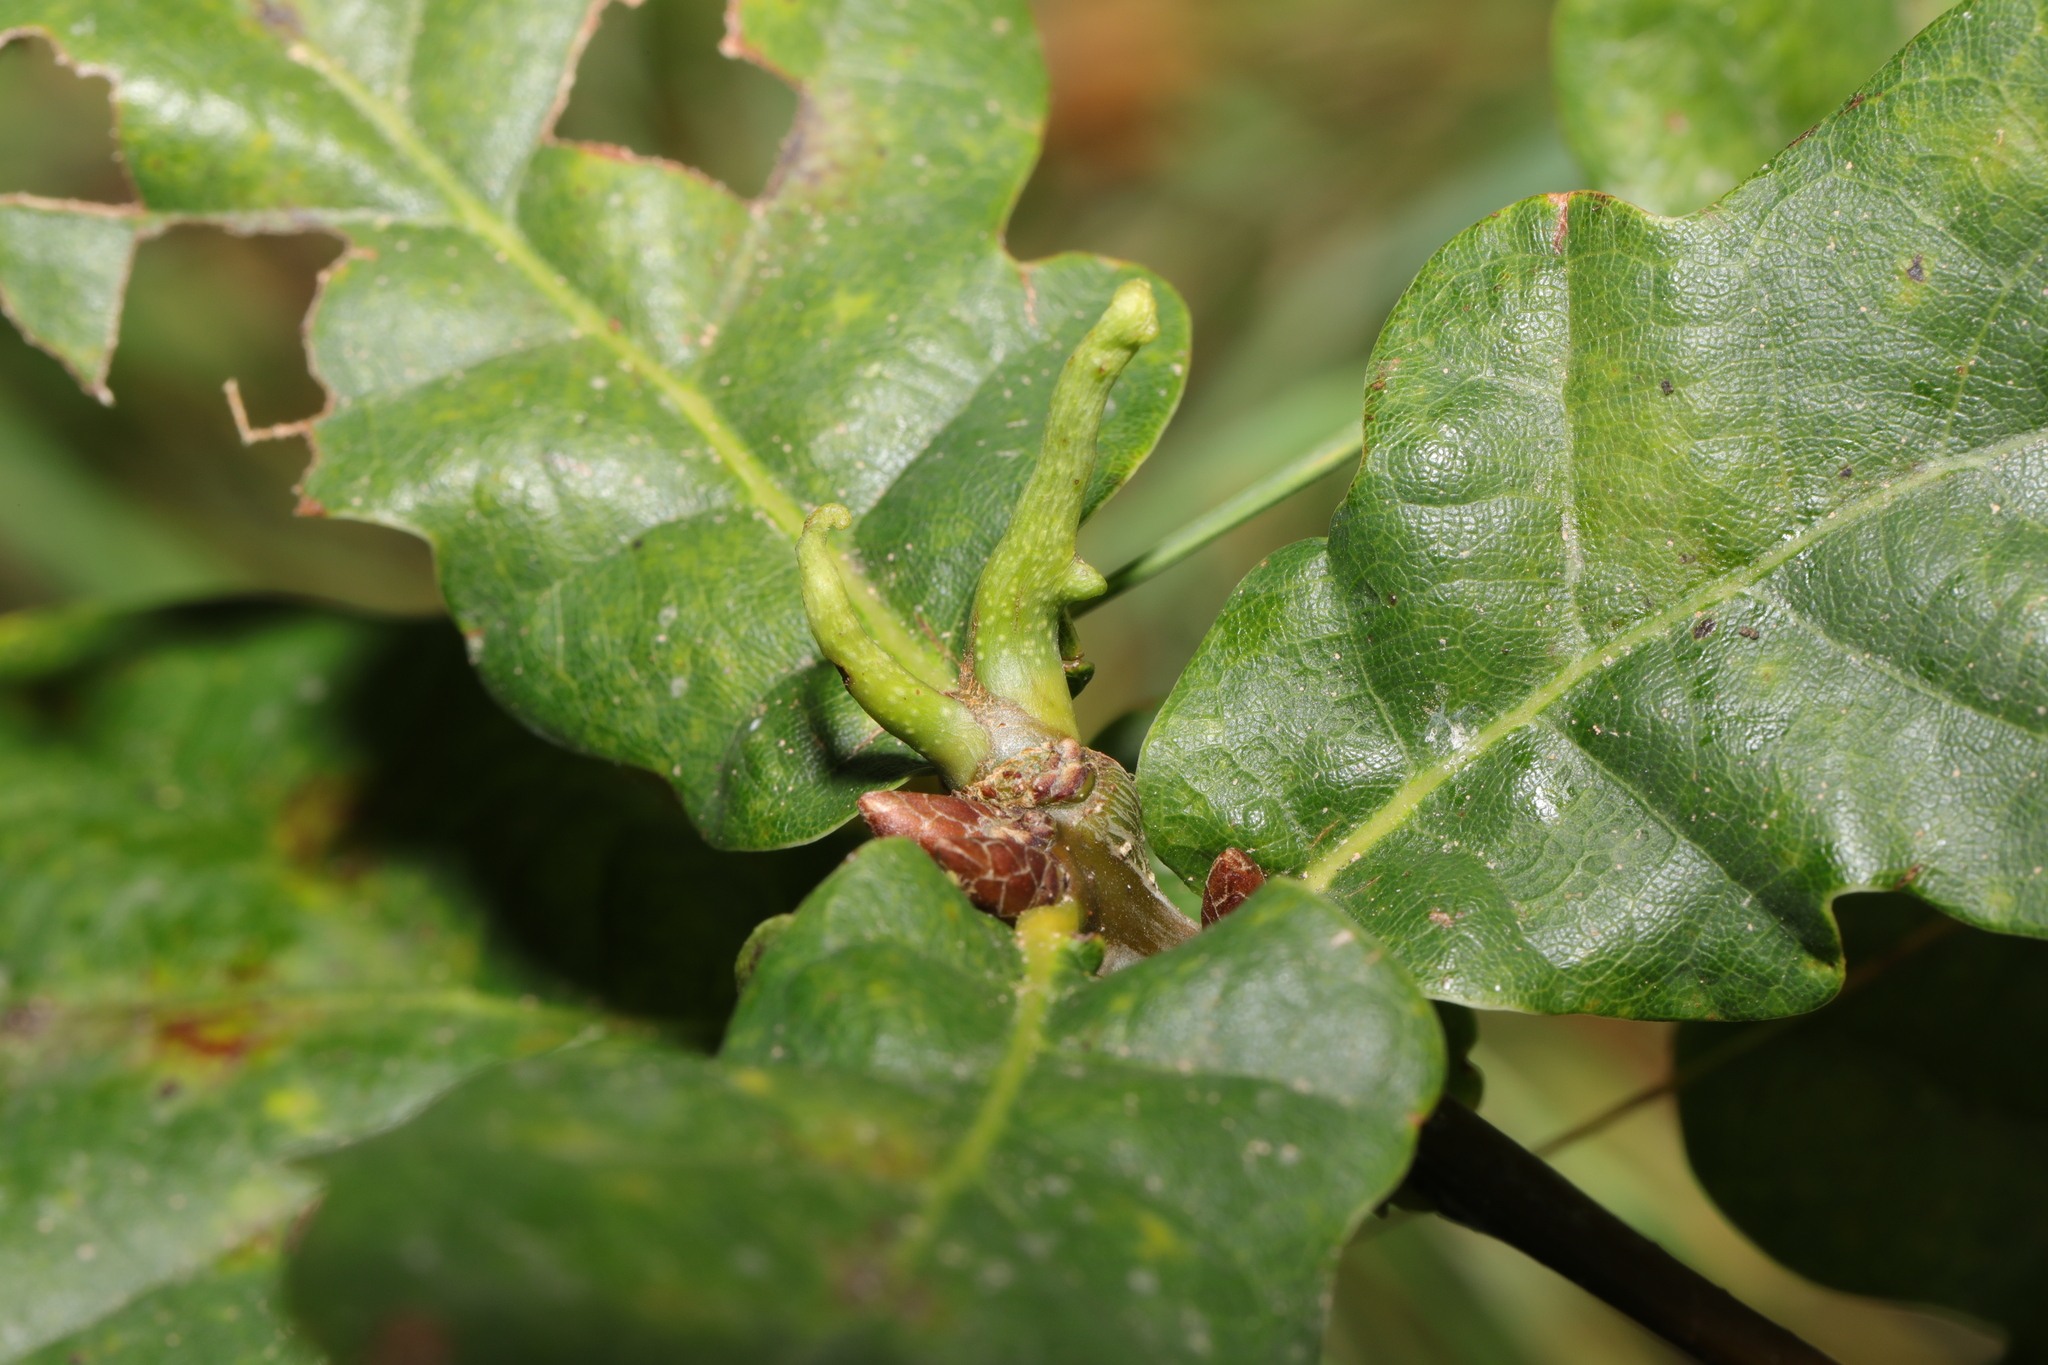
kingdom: Animalia
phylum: Arthropoda
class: Insecta
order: Hymenoptera
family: Cynipidae
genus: Andricus
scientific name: Andricus aries
